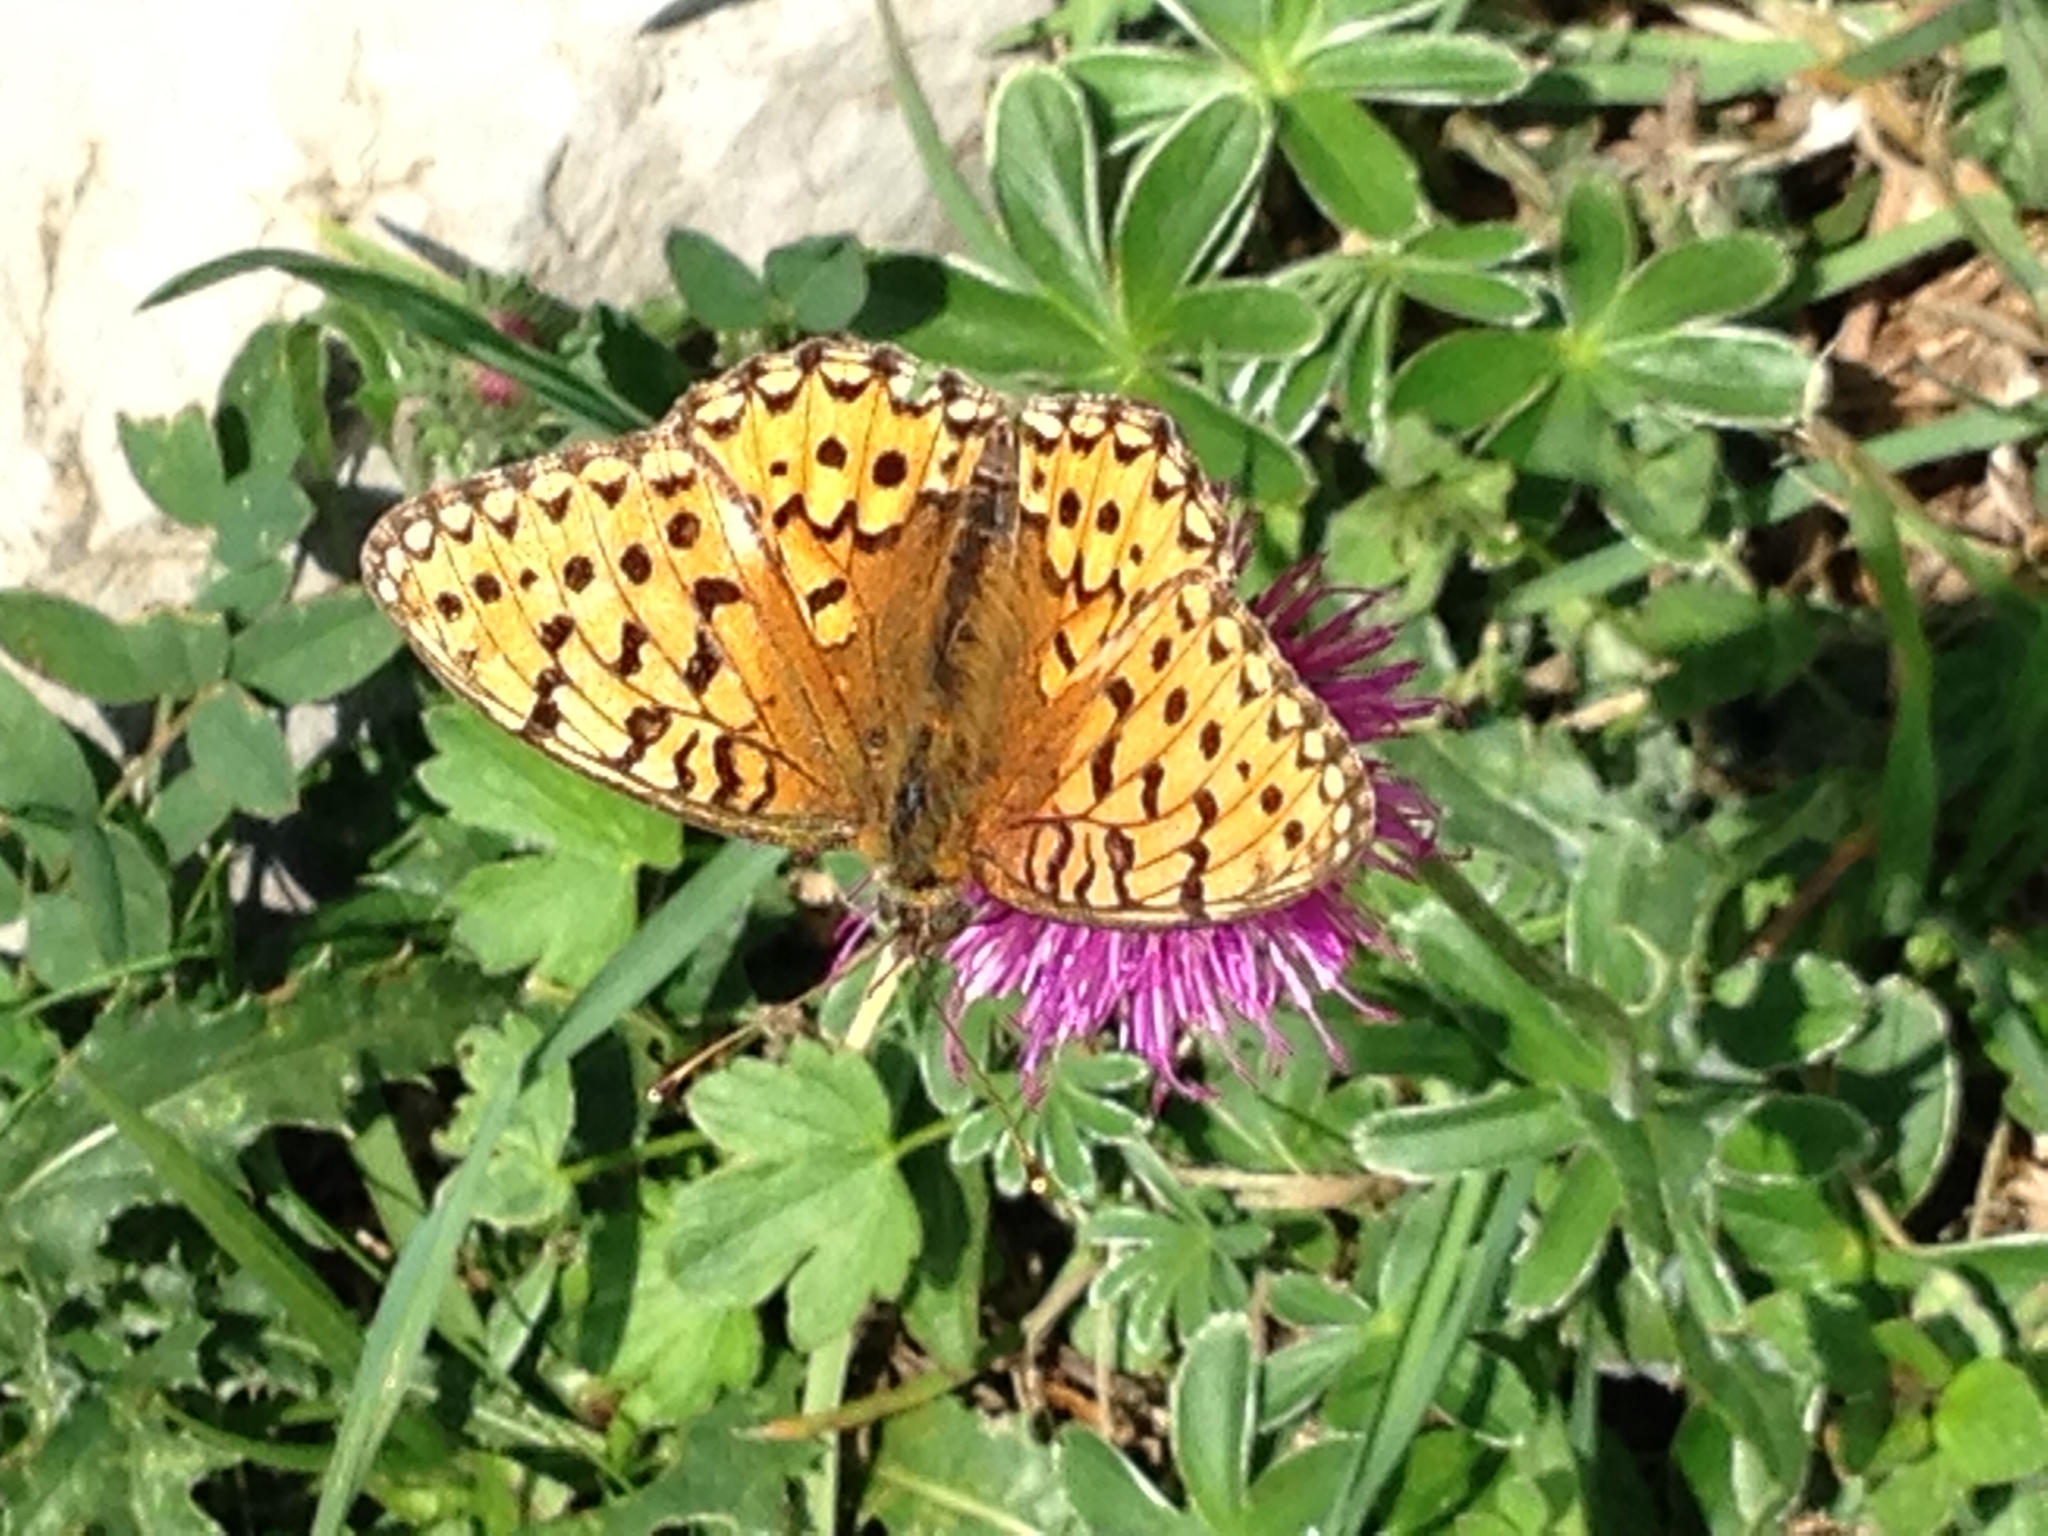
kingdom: Animalia
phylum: Arthropoda
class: Insecta
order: Lepidoptera
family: Nymphalidae
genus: Speyeria
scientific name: Speyeria aglaja
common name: Dark green fritillary
